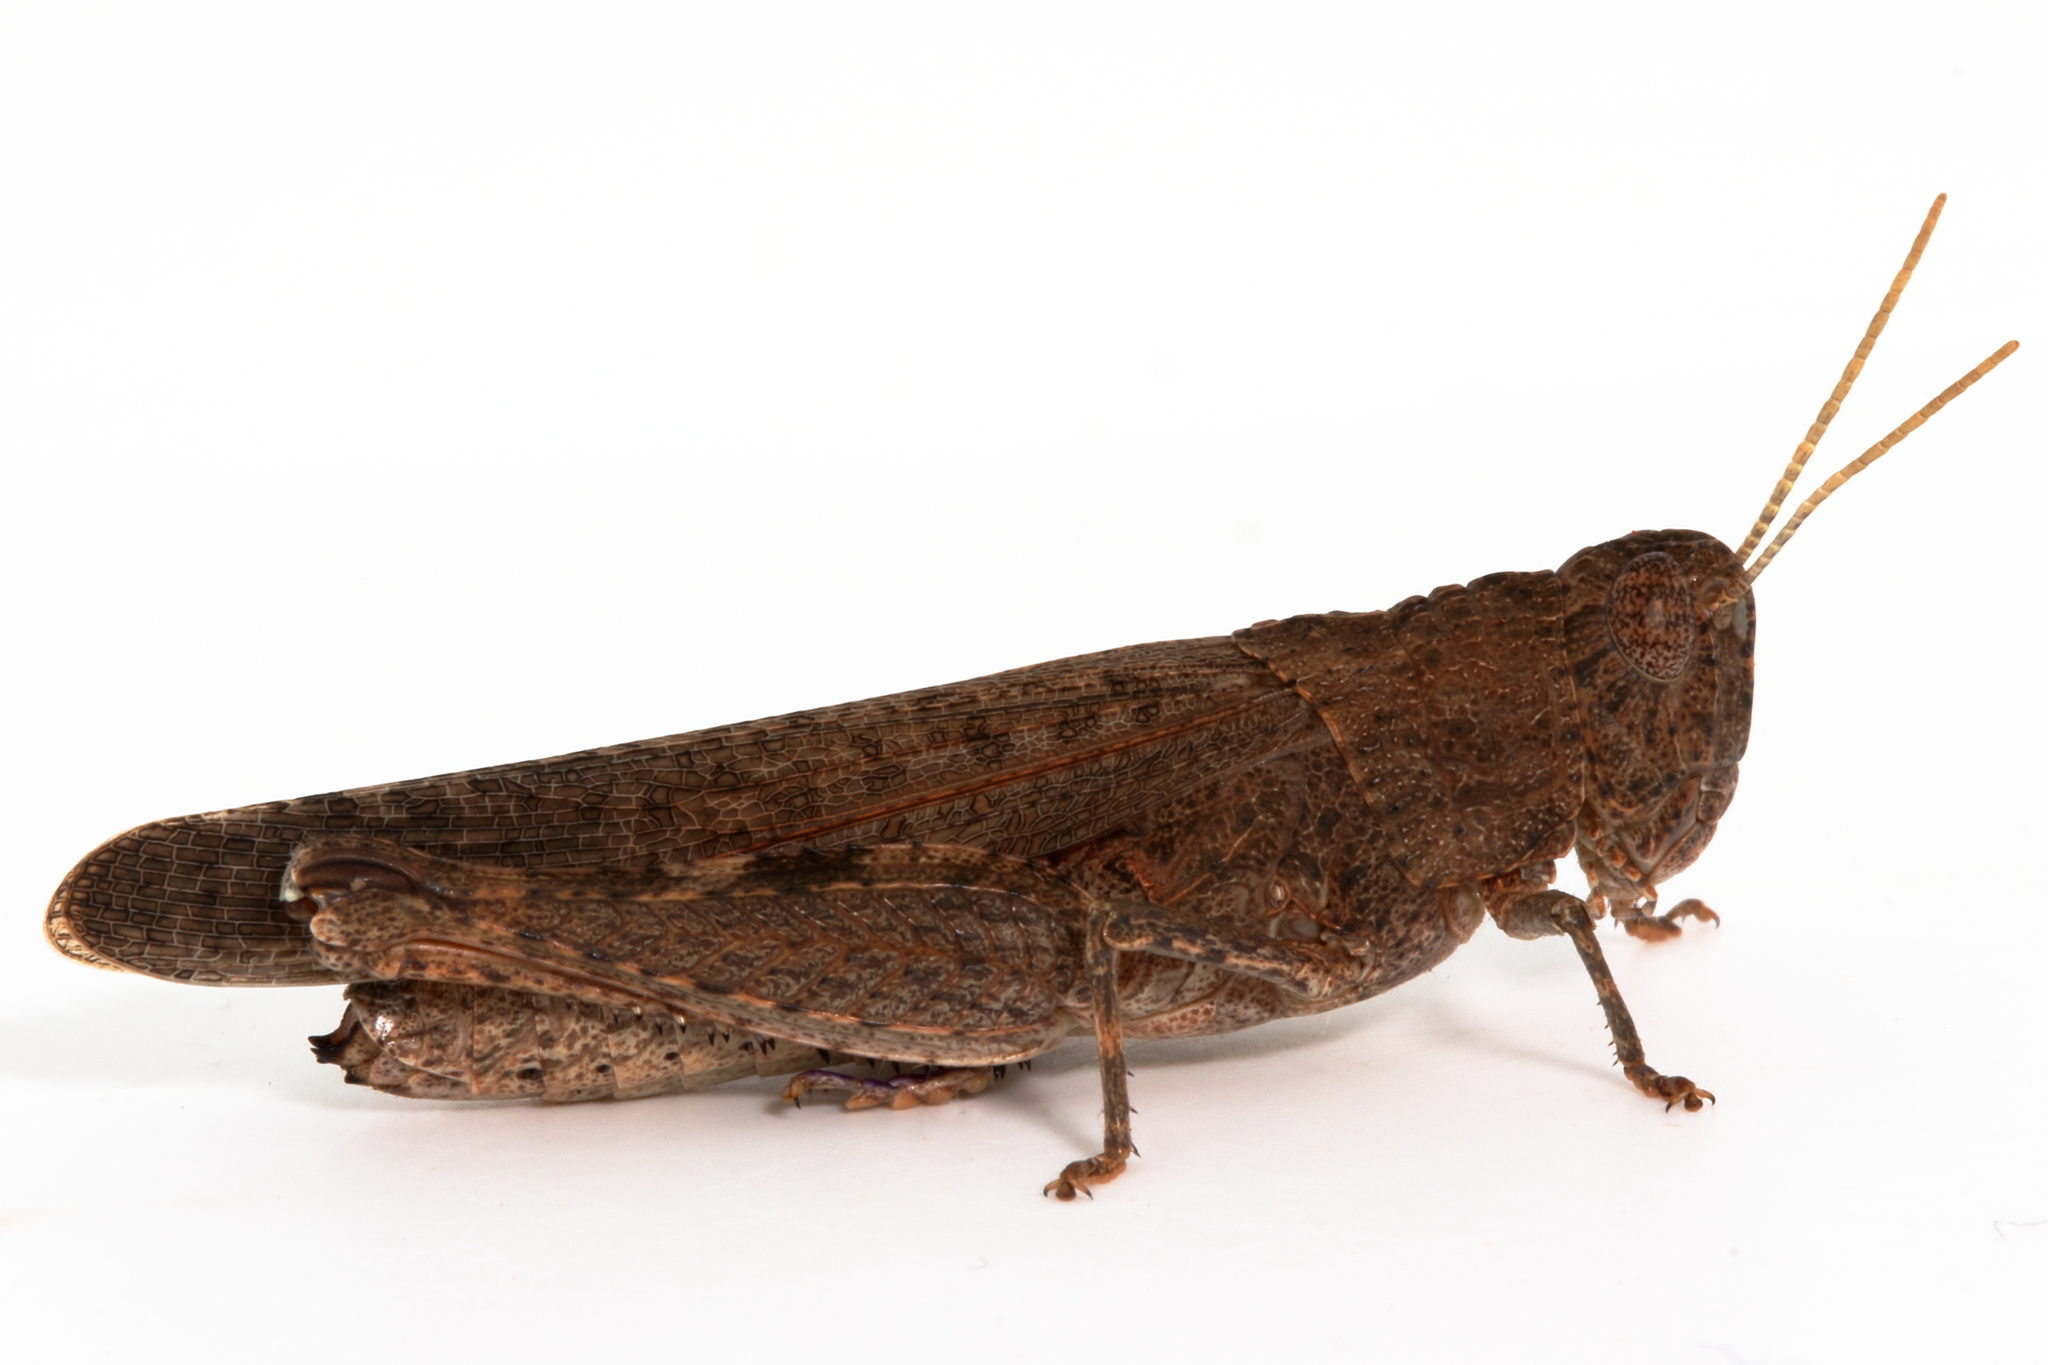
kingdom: Animalia
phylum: Arthropoda
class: Insecta
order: Orthoptera
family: Acrididae
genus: Peakesia
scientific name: Peakesia hospita
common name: Common peakesia
